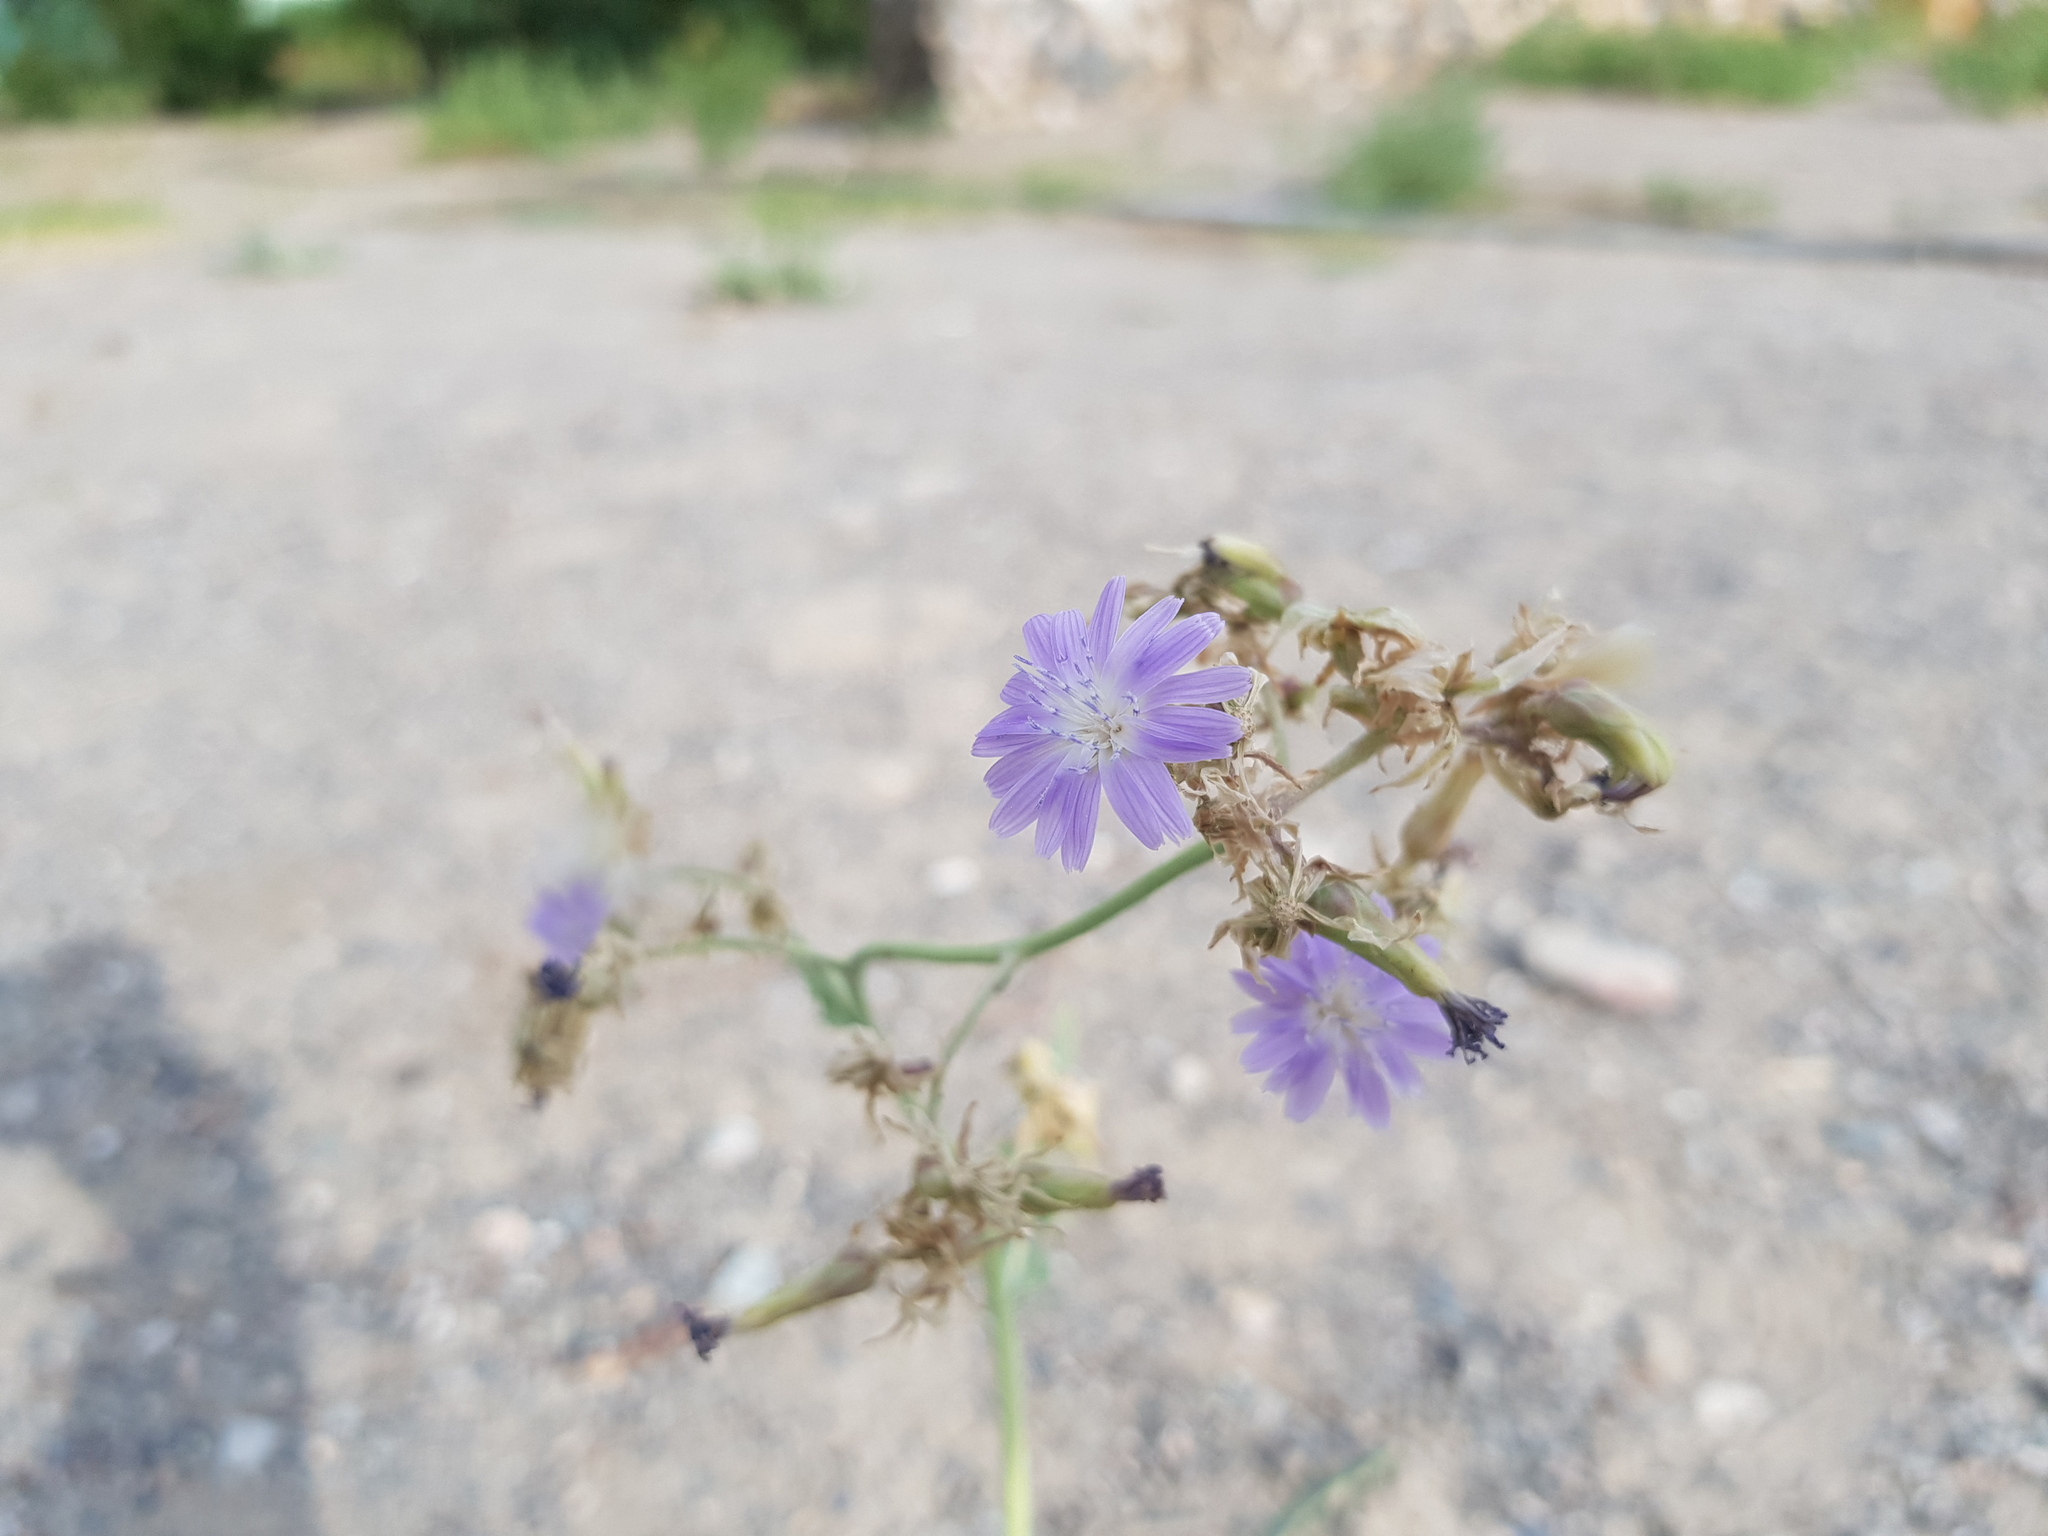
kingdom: Plantae
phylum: Tracheophyta
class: Magnoliopsida
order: Asterales
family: Asteraceae
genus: Lactuca
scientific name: Lactuca tatarica
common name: Blue lettuce
